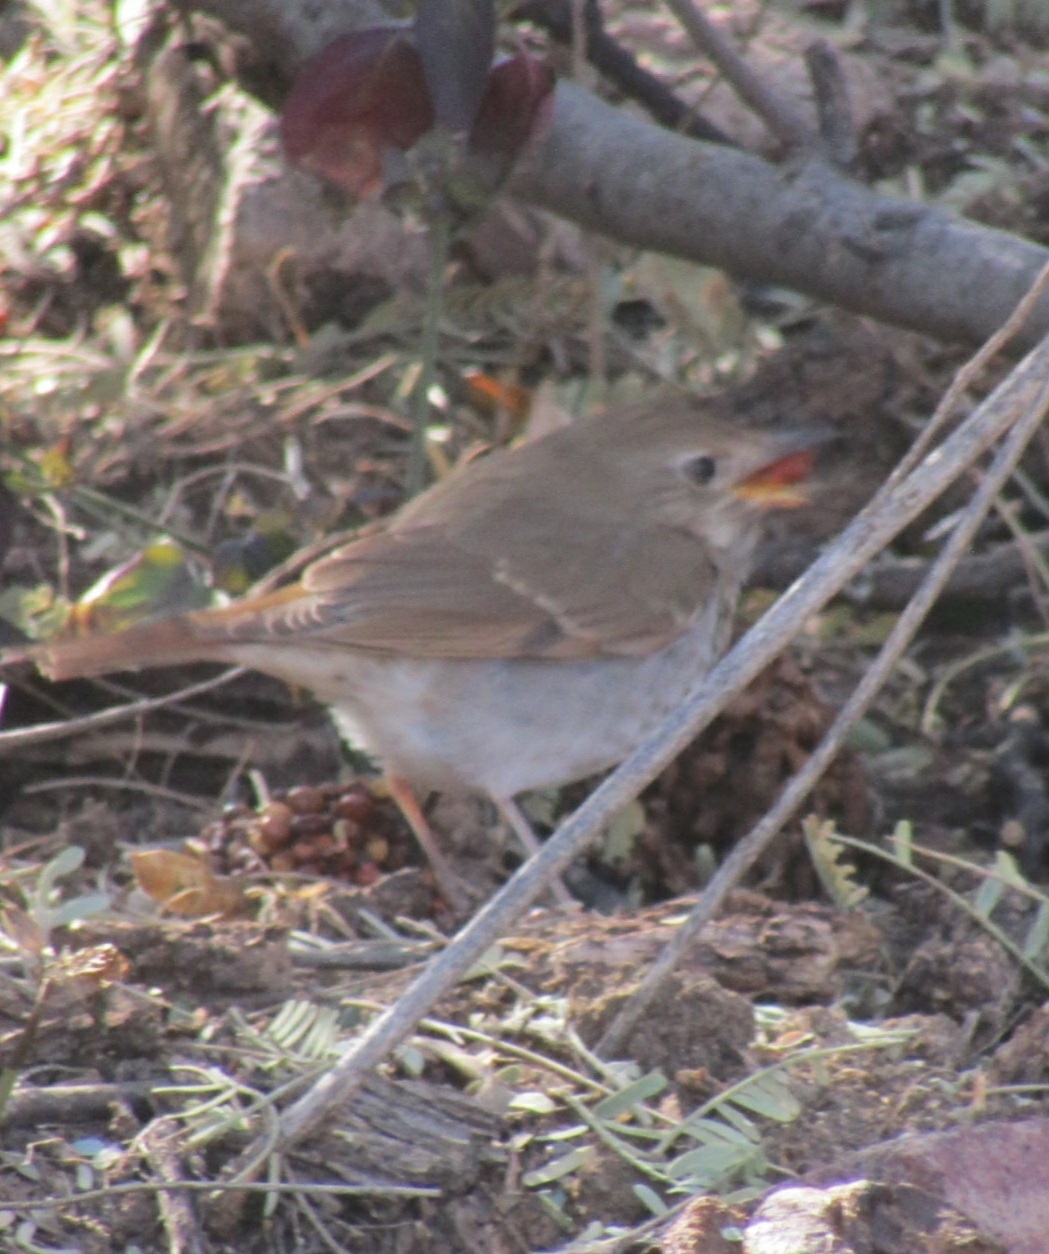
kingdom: Animalia
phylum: Chordata
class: Aves
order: Passeriformes
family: Turdidae
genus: Catharus
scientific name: Catharus guttatus
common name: Hermit thrush
